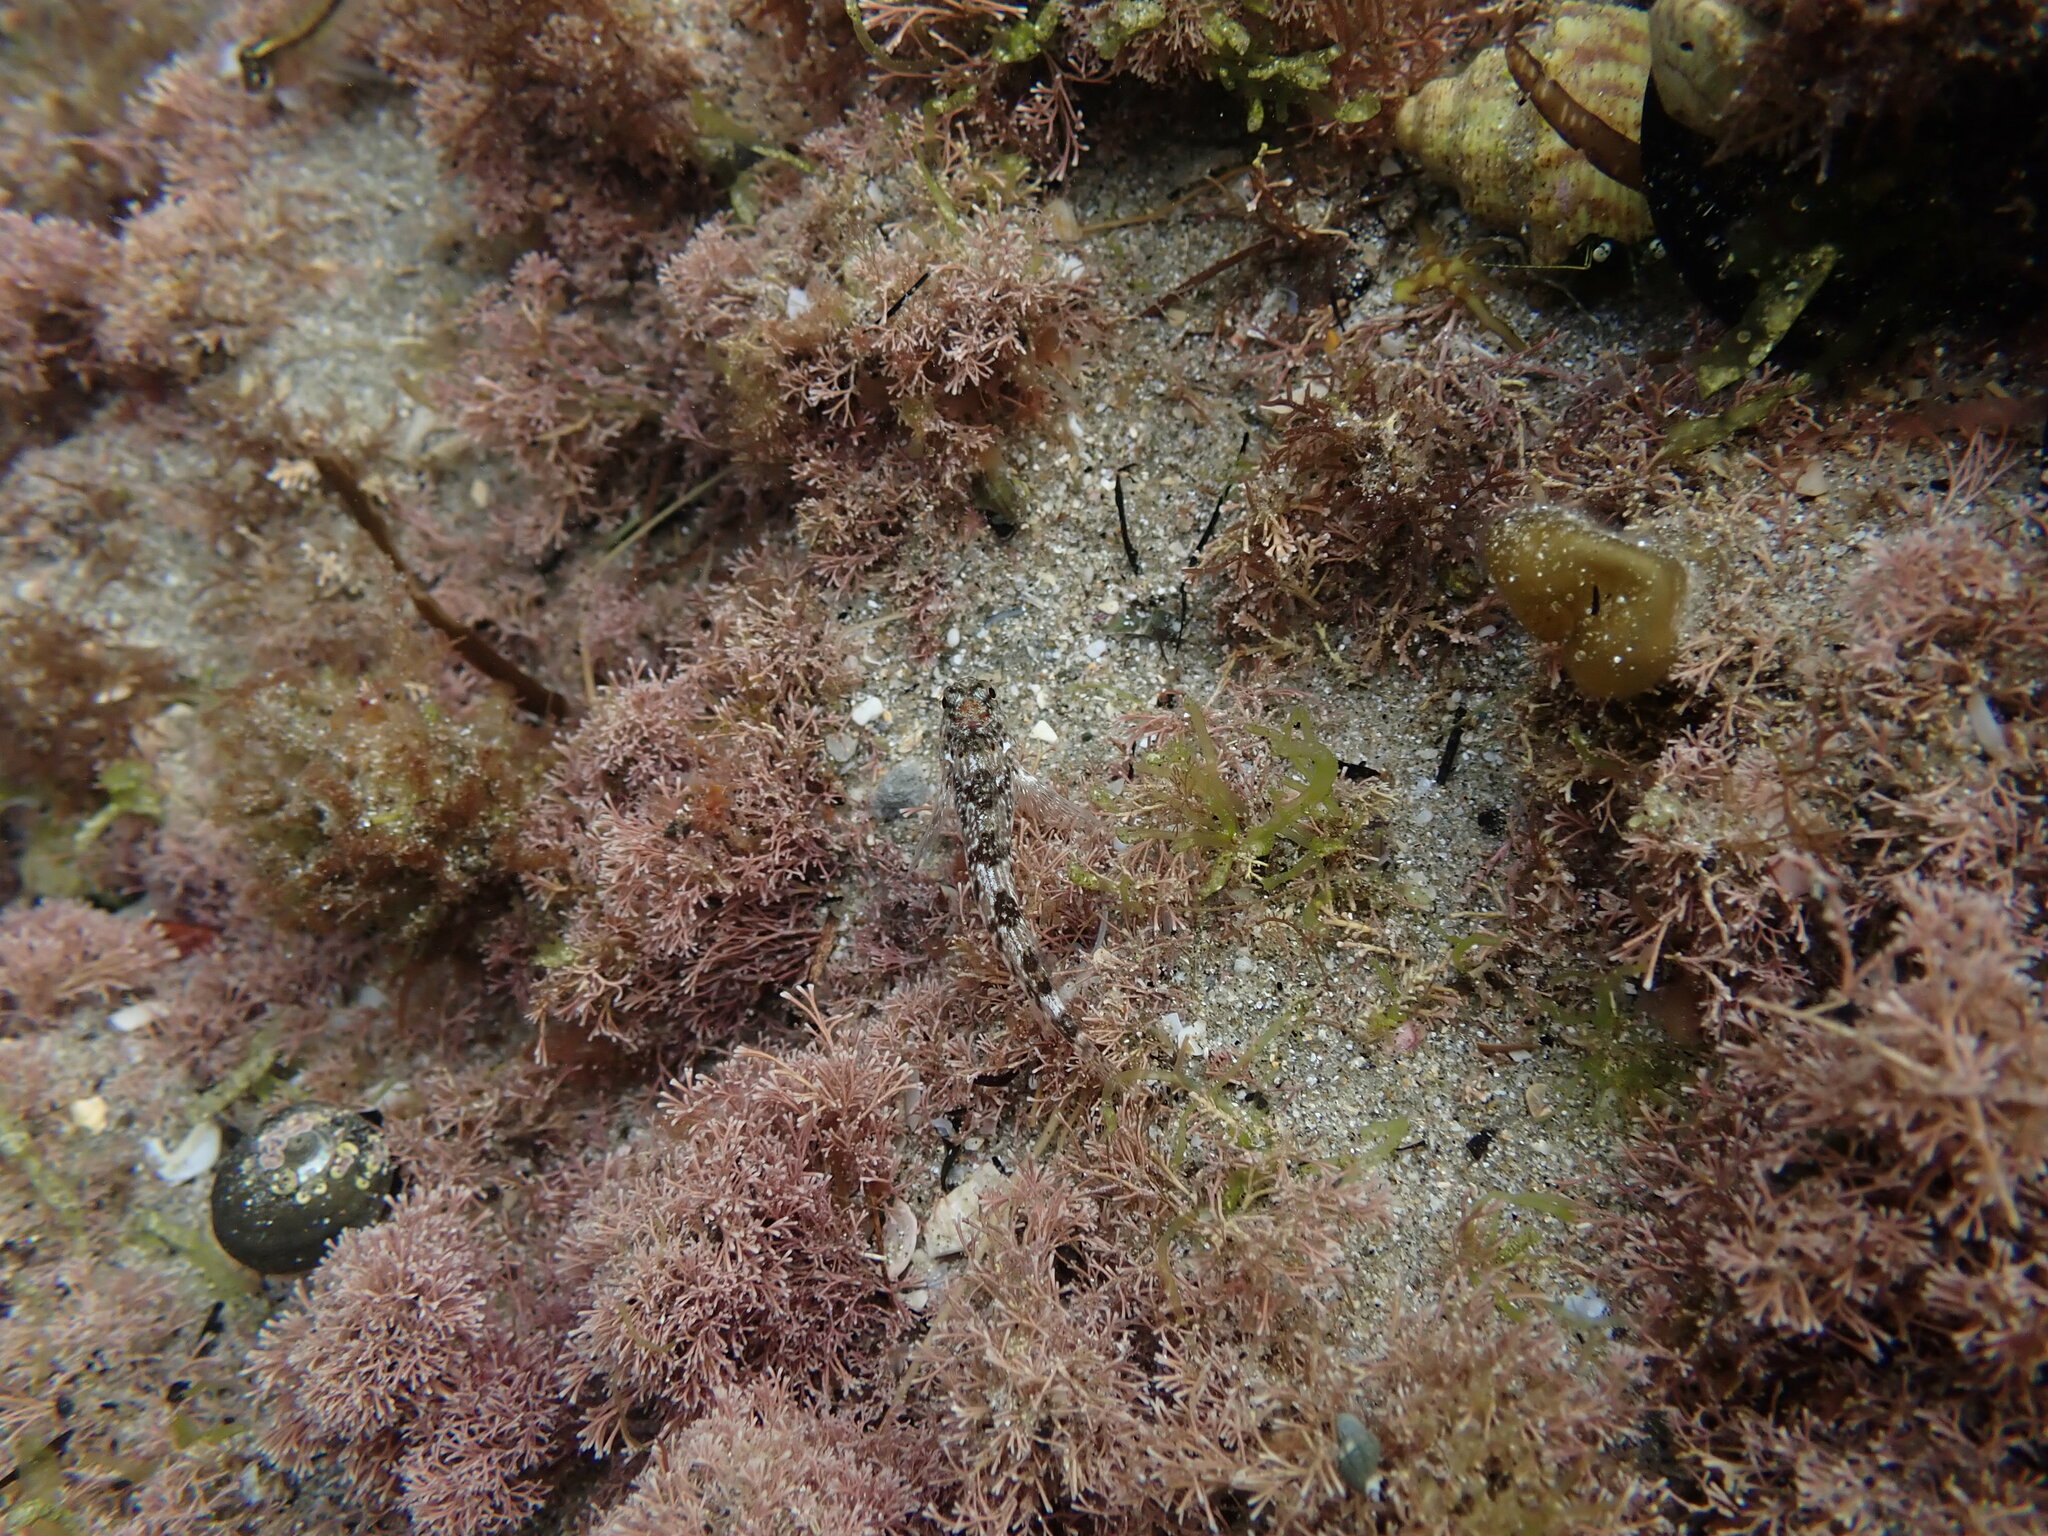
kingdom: Animalia
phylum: Chordata
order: Perciformes
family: Tripterygiidae
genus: Bellapiscis
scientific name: Bellapiscis medius
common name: Twister
